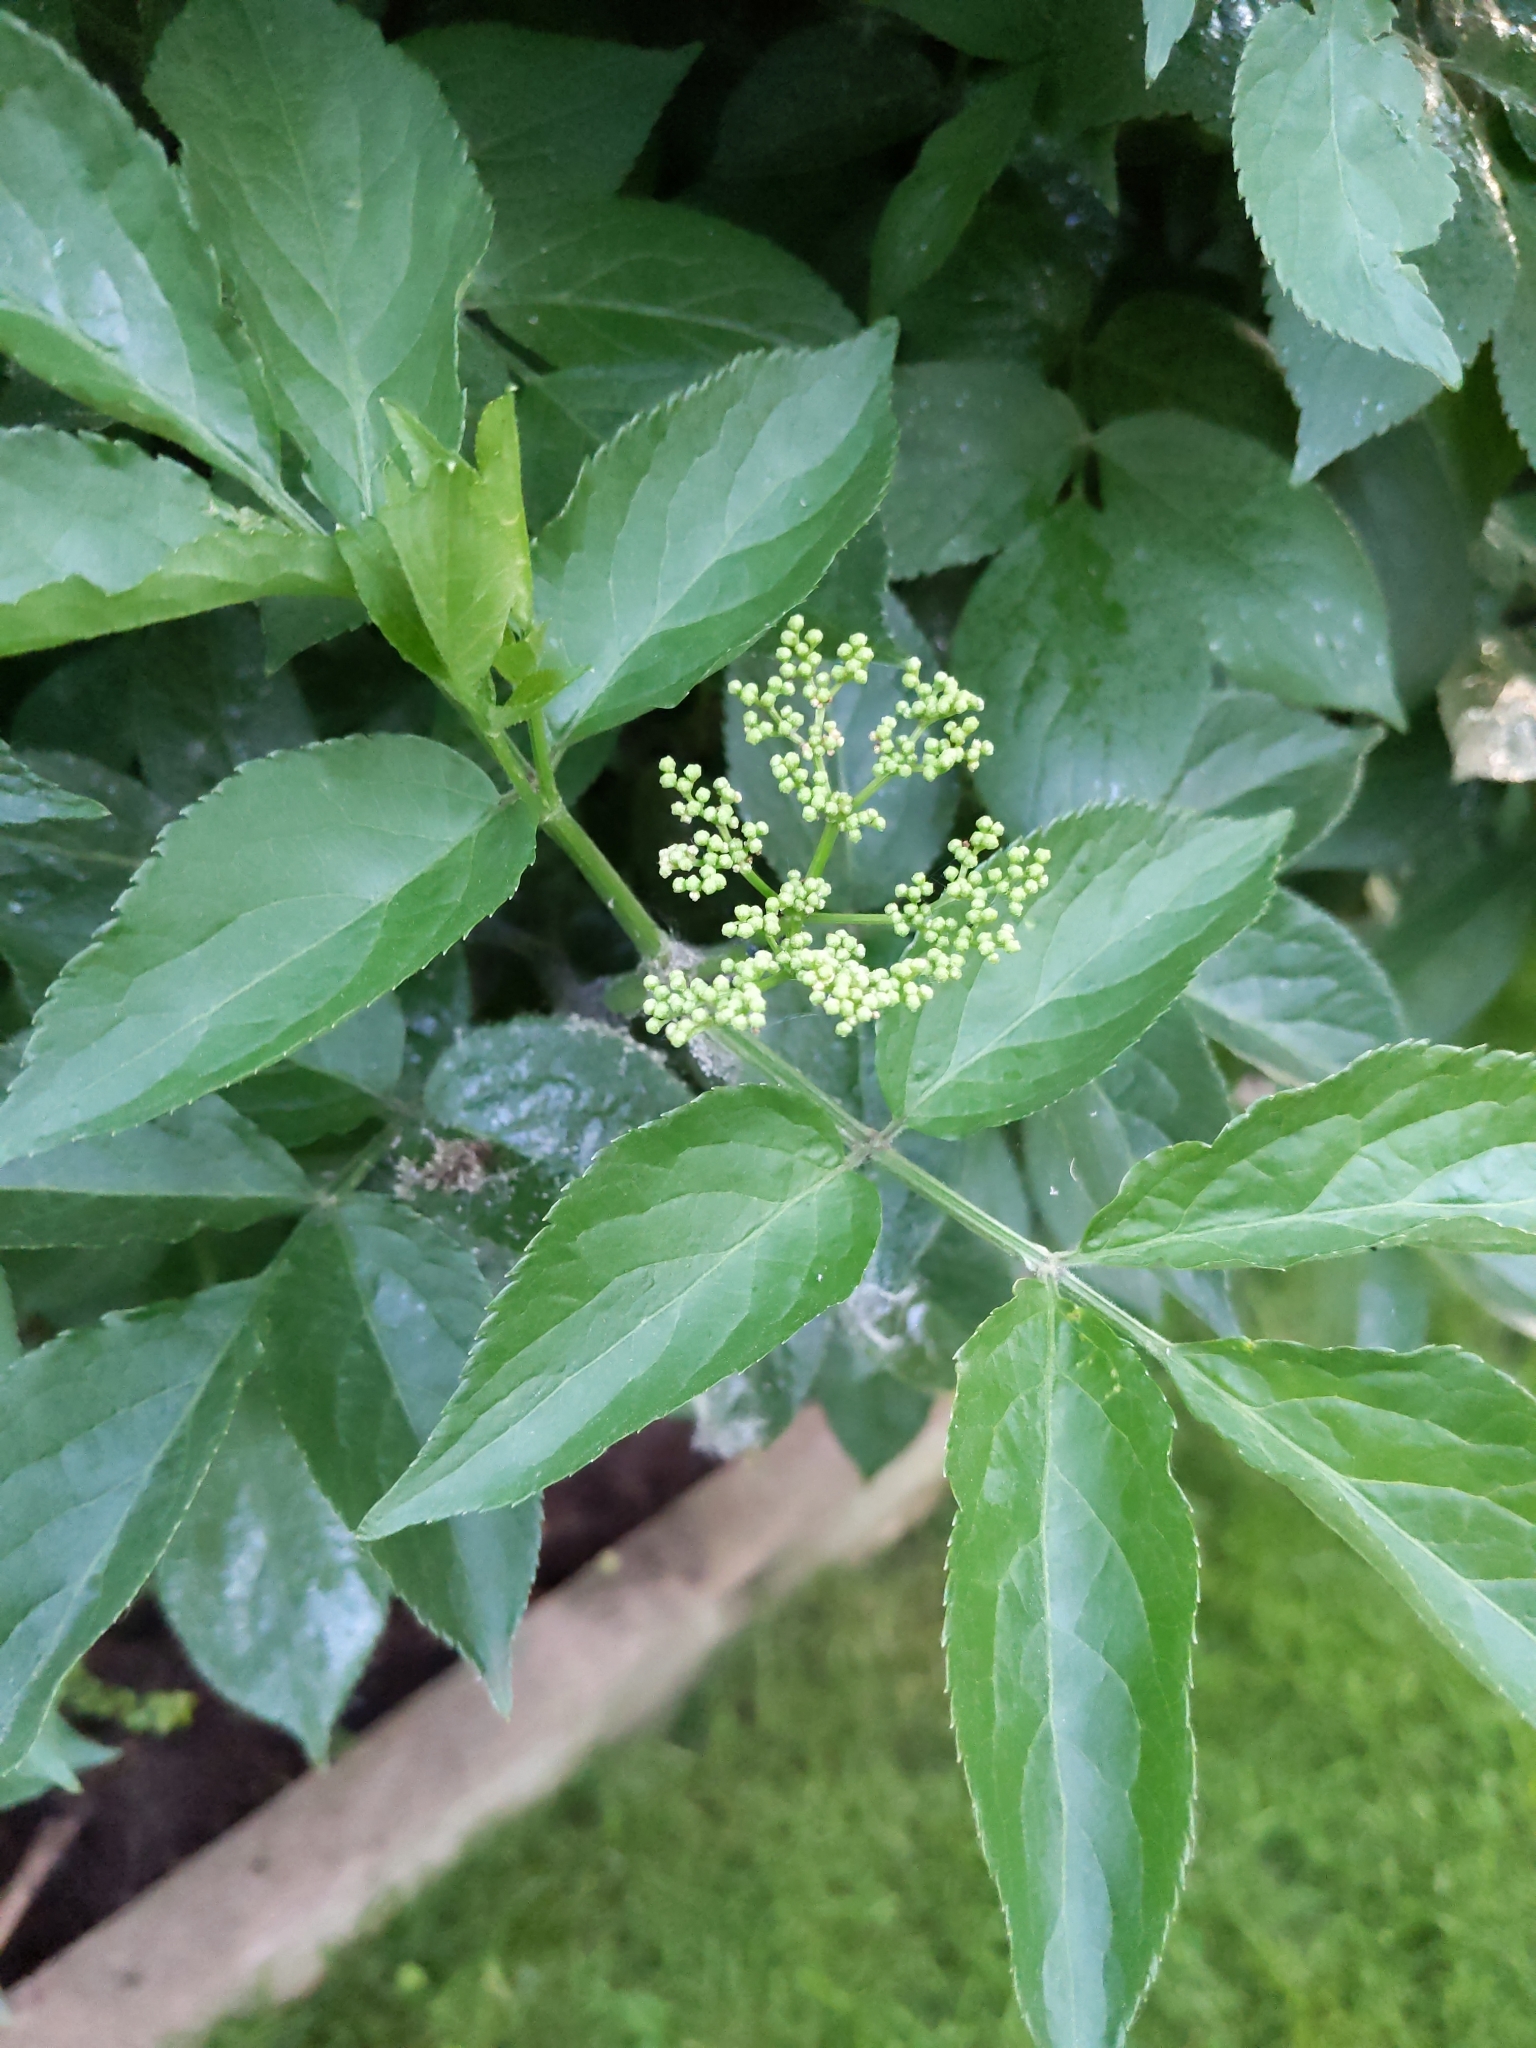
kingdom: Plantae
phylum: Tracheophyta
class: Magnoliopsida
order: Dipsacales
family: Viburnaceae
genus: Sambucus
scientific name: Sambucus nigra
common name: Elder
